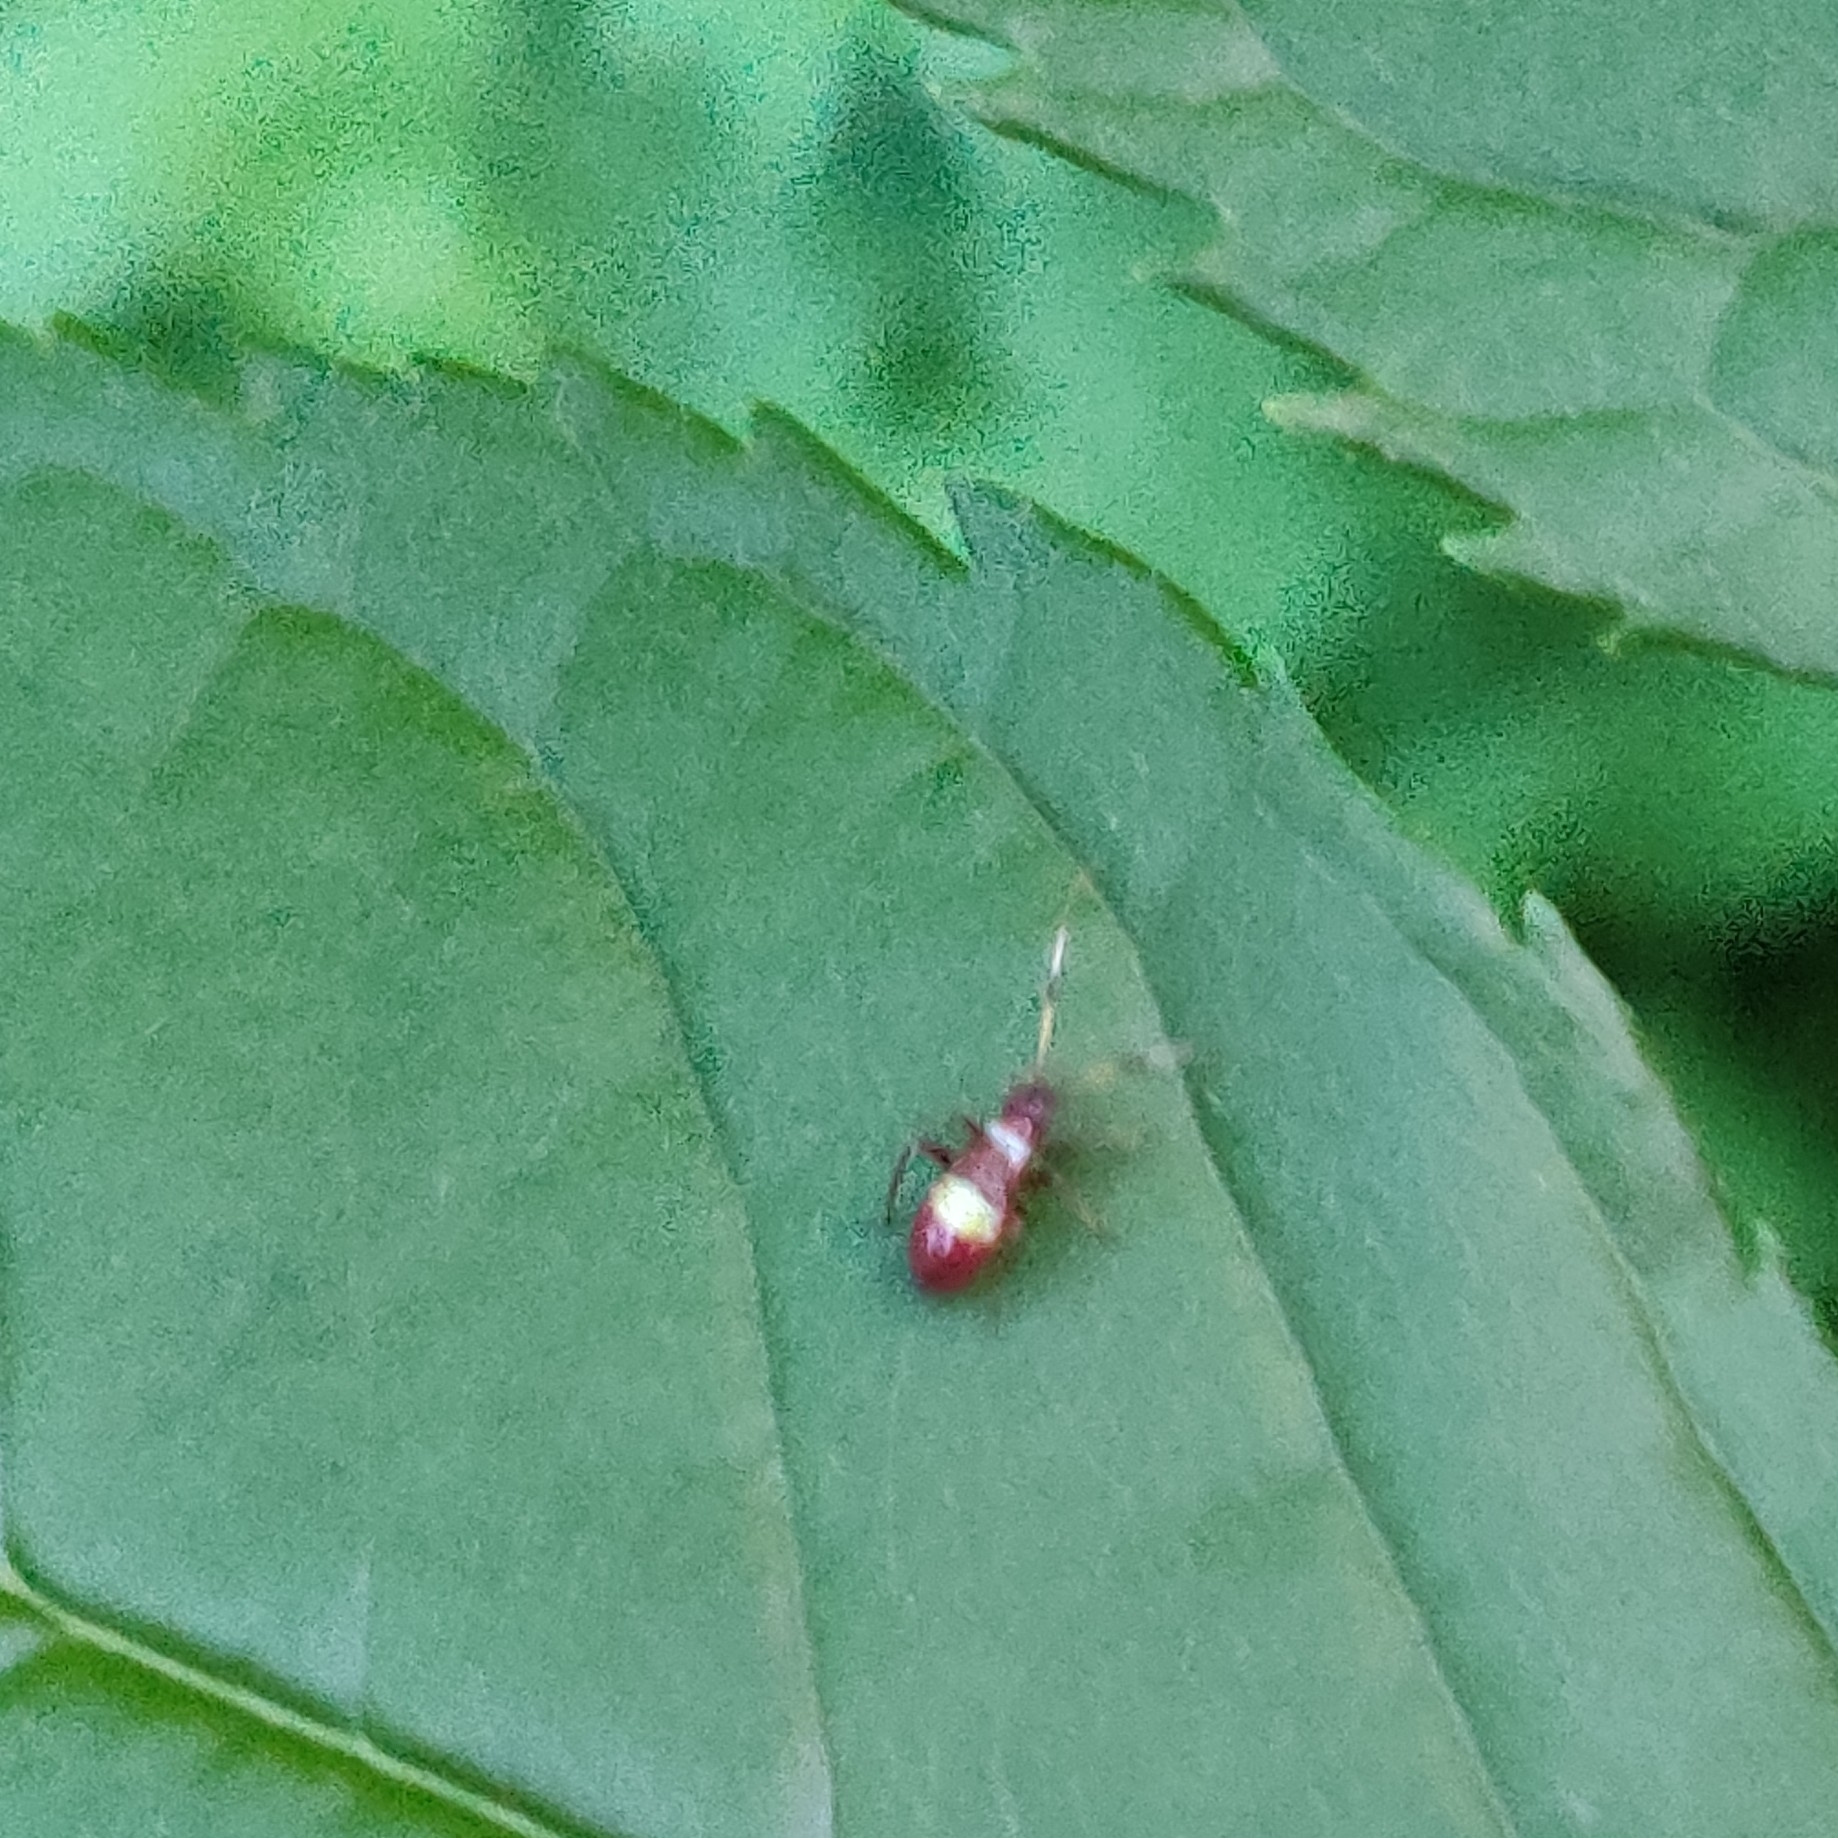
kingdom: Animalia
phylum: Arthropoda
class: Insecta
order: Hemiptera
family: Miridae
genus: Closterotomus
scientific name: Closterotomus biclavatus
